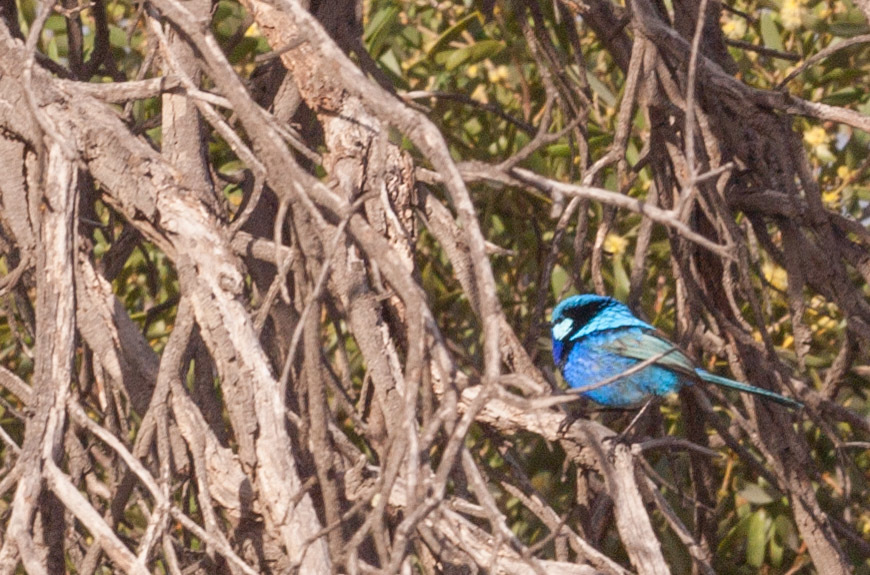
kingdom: Animalia
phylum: Chordata
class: Aves
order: Passeriformes
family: Maluridae
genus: Malurus
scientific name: Malurus splendens
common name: Splendid fairywren
